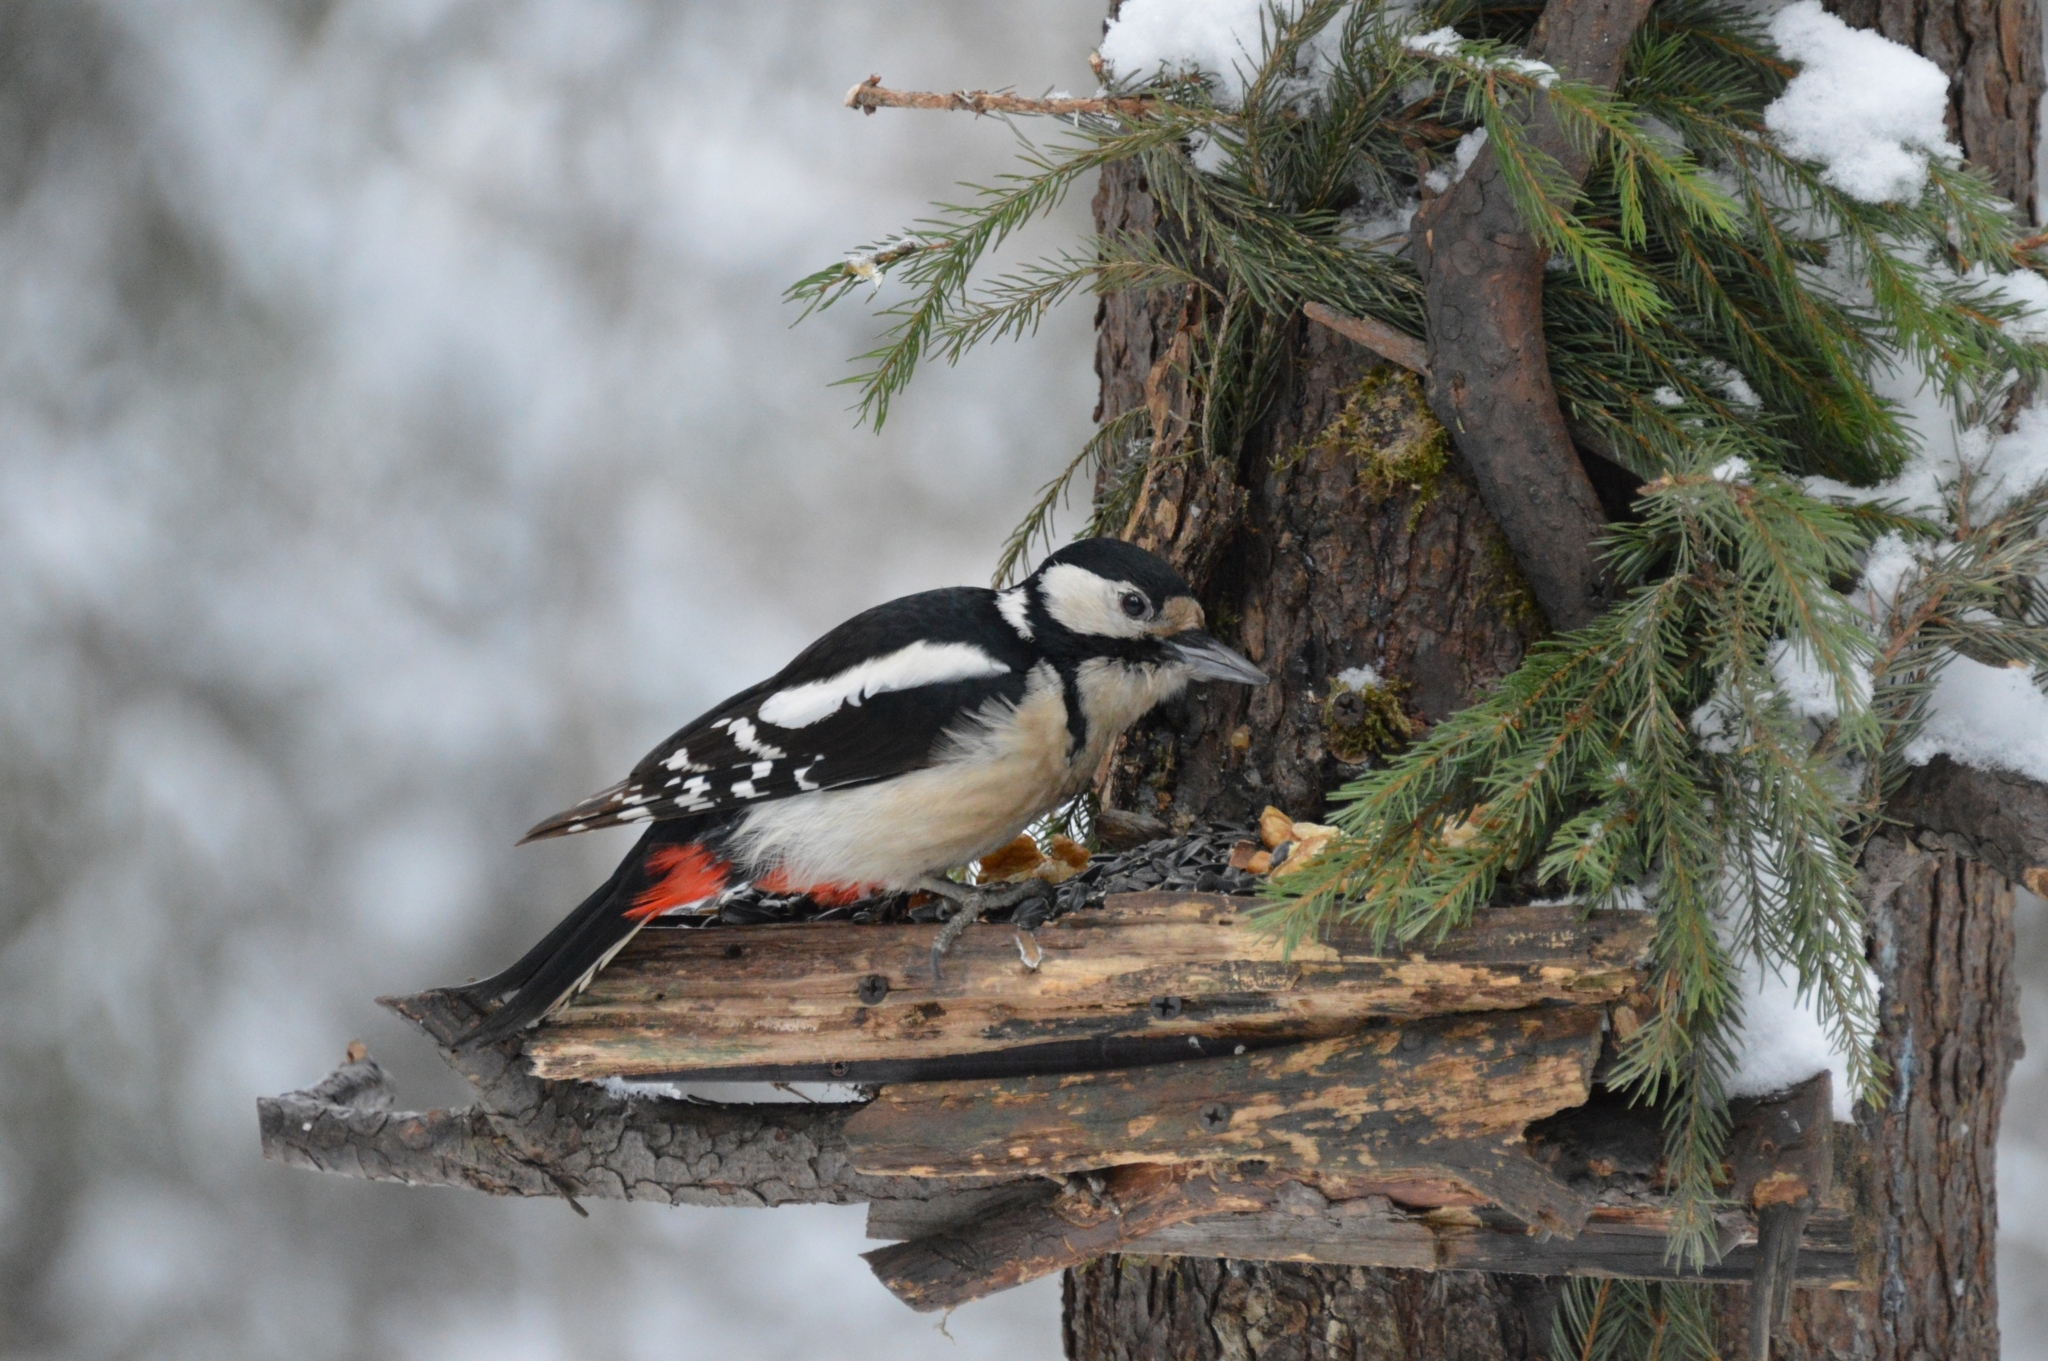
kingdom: Animalia
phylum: Chordata
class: Aves
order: Piciformes
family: Picidae
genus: Dendrocopos
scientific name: Dendrocopos major
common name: Great spotted woodpecker
